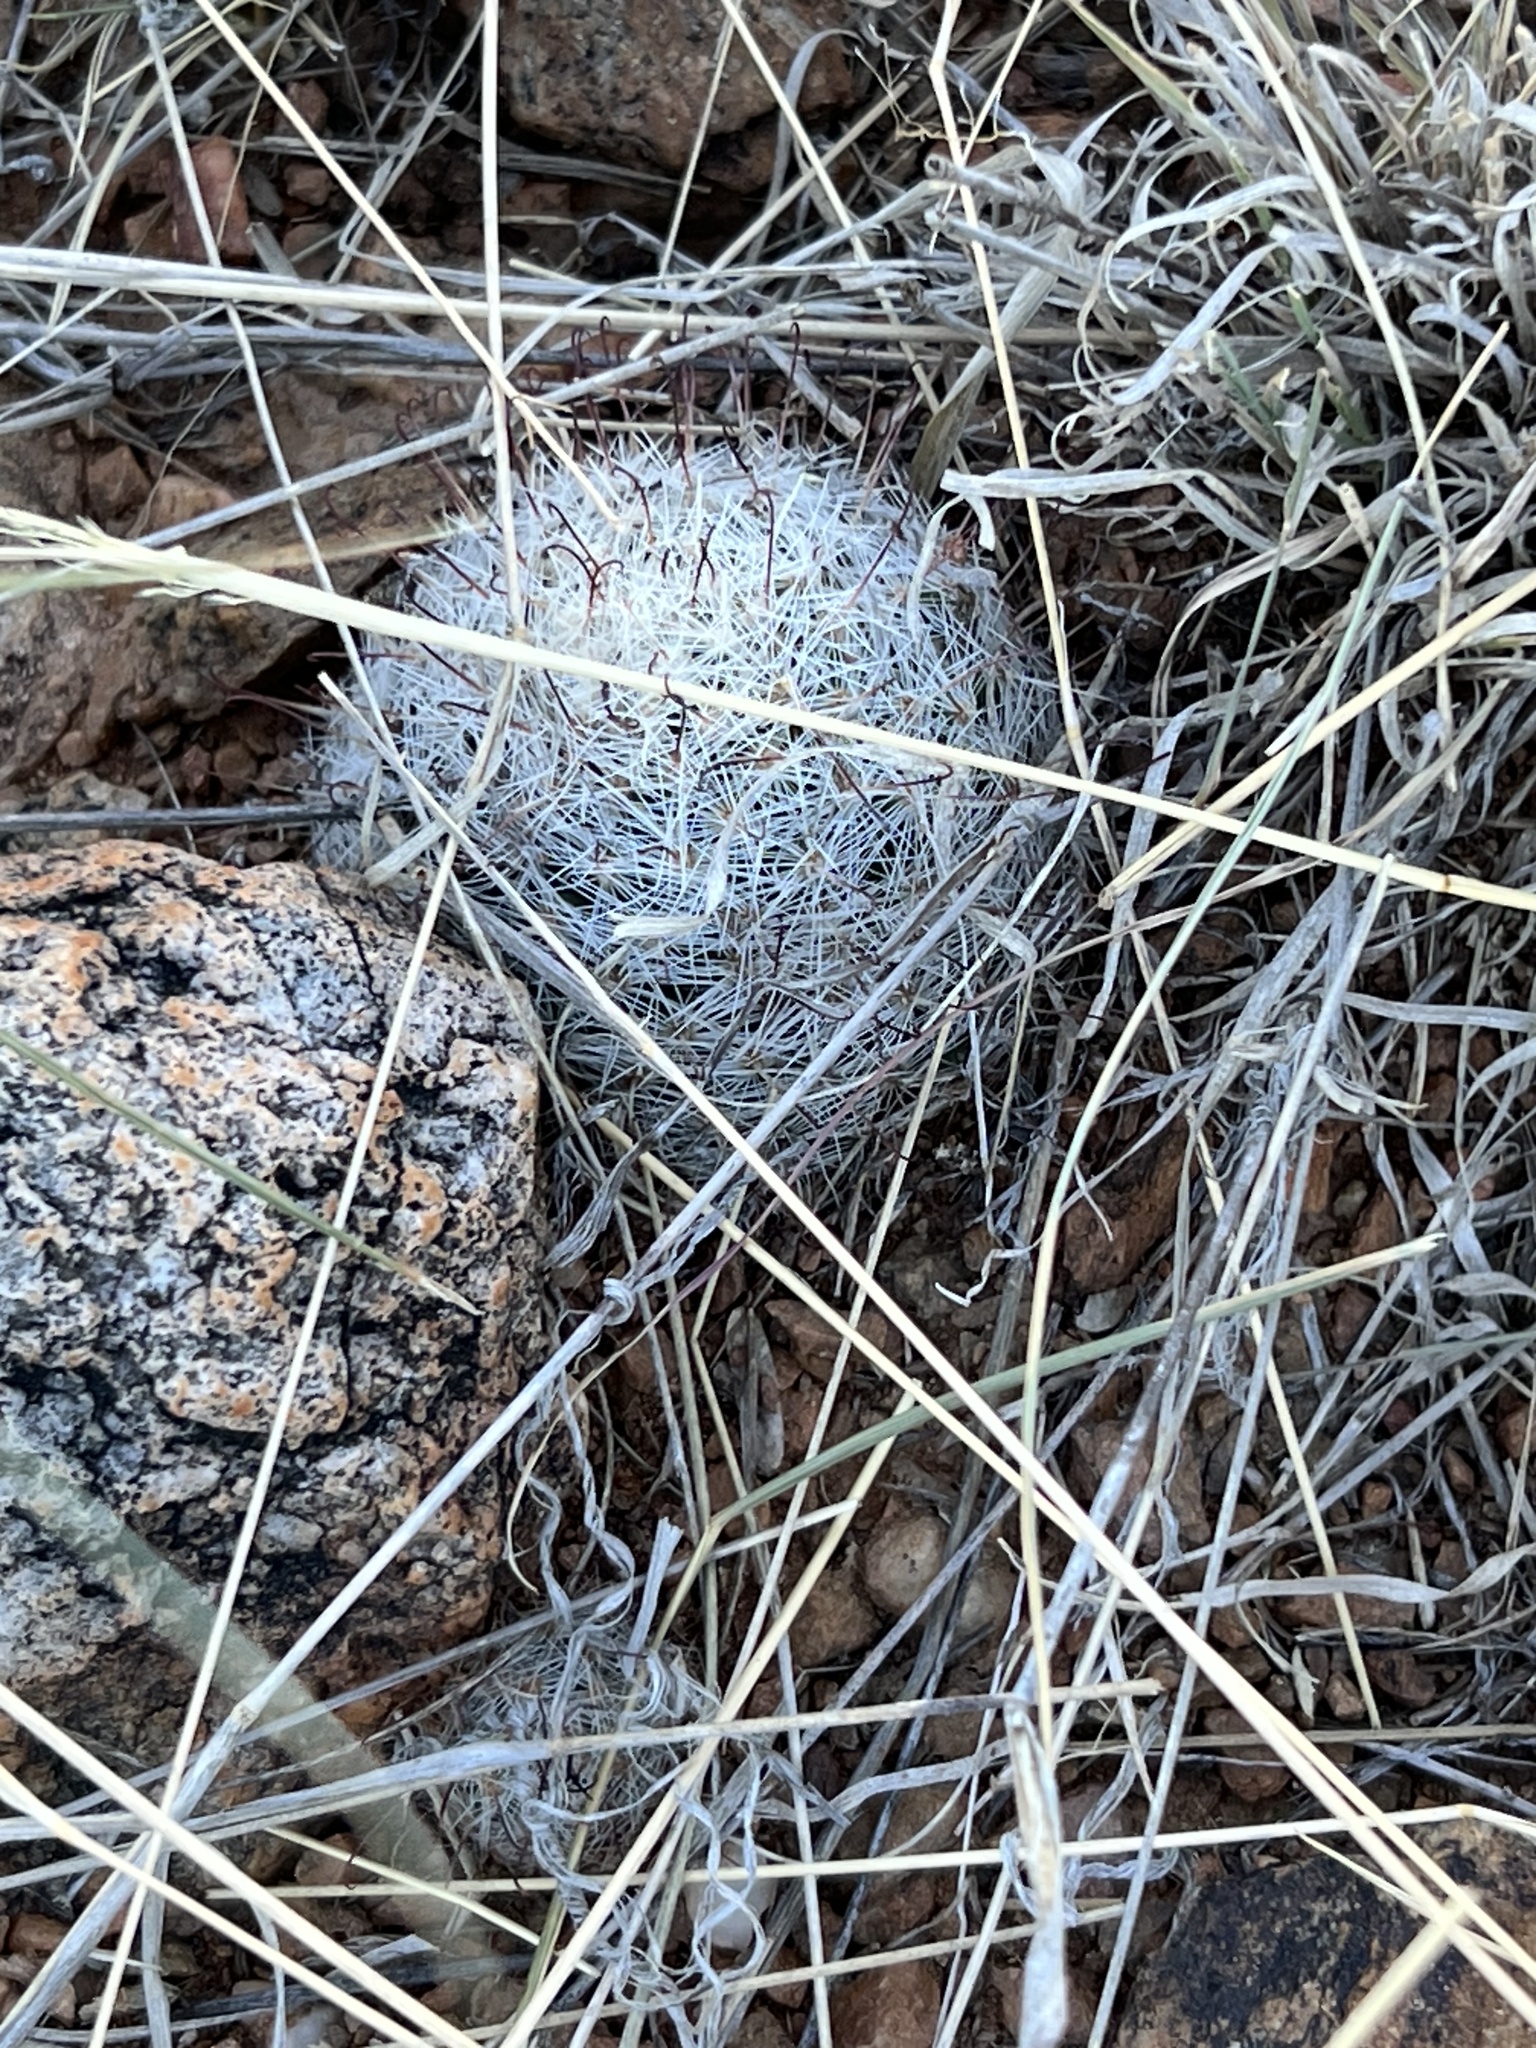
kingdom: Plantae
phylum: Tracheophyta
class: Magnoliopsida
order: Caryophyllales
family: Cactaceae
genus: Cochemiea
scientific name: Cochemiea grahamii
